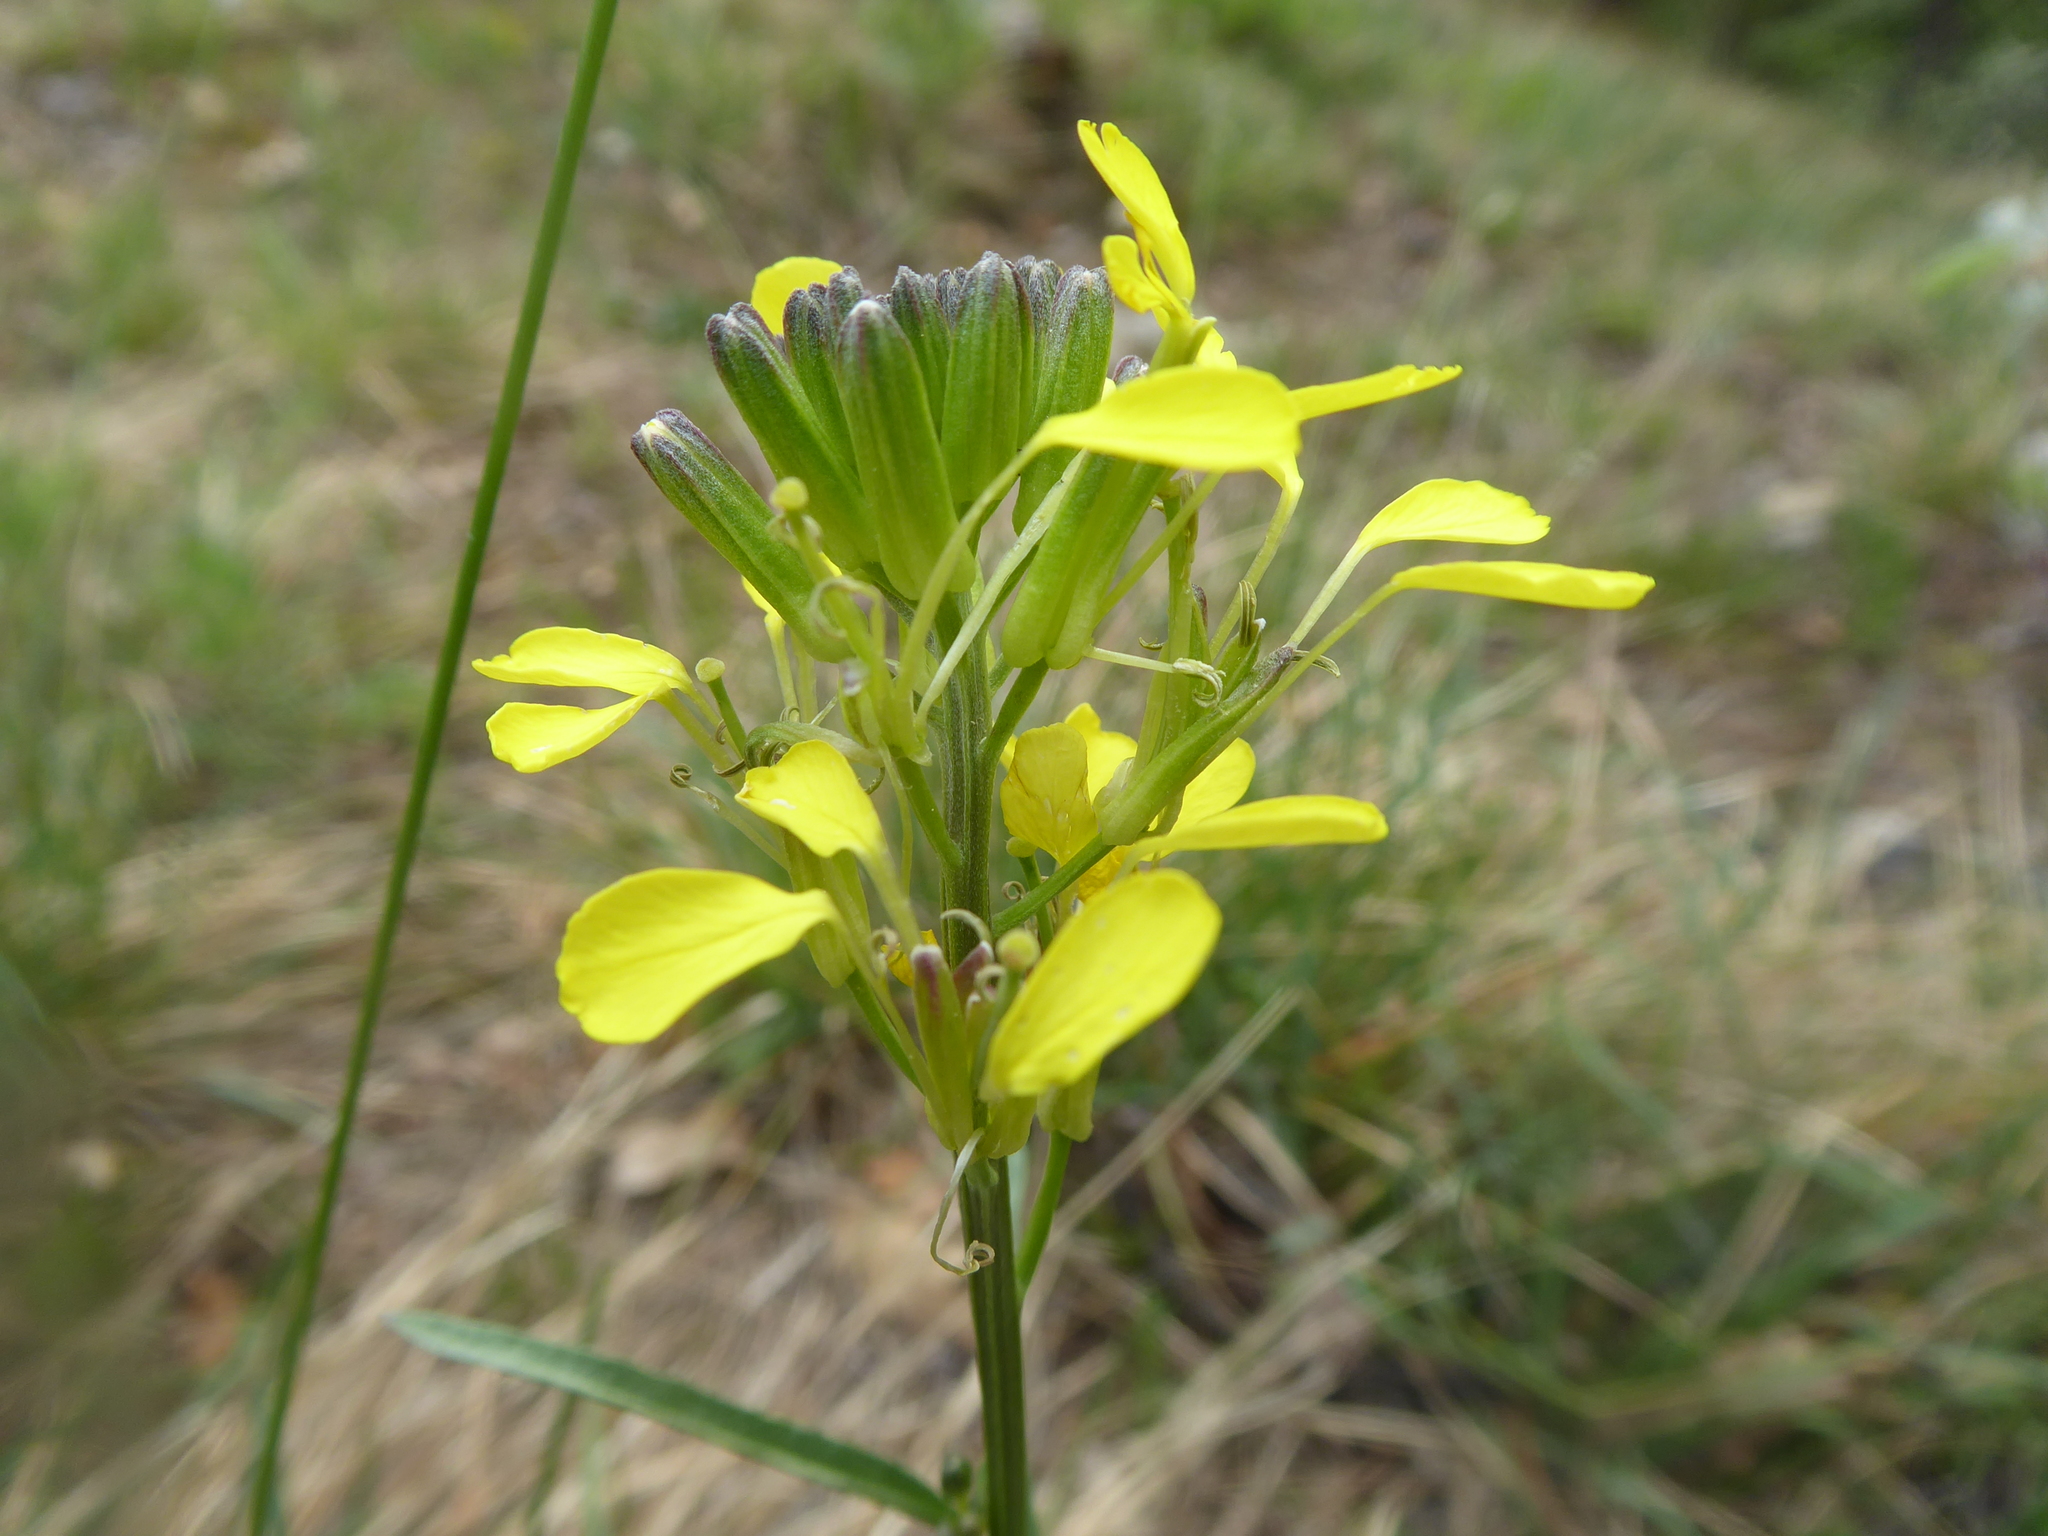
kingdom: Plantae
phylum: Tracheophyta
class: Magnoliopsida
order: Brassicales
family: Brassicaceae
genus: Erysimum
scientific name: Erysimum sylvestre
